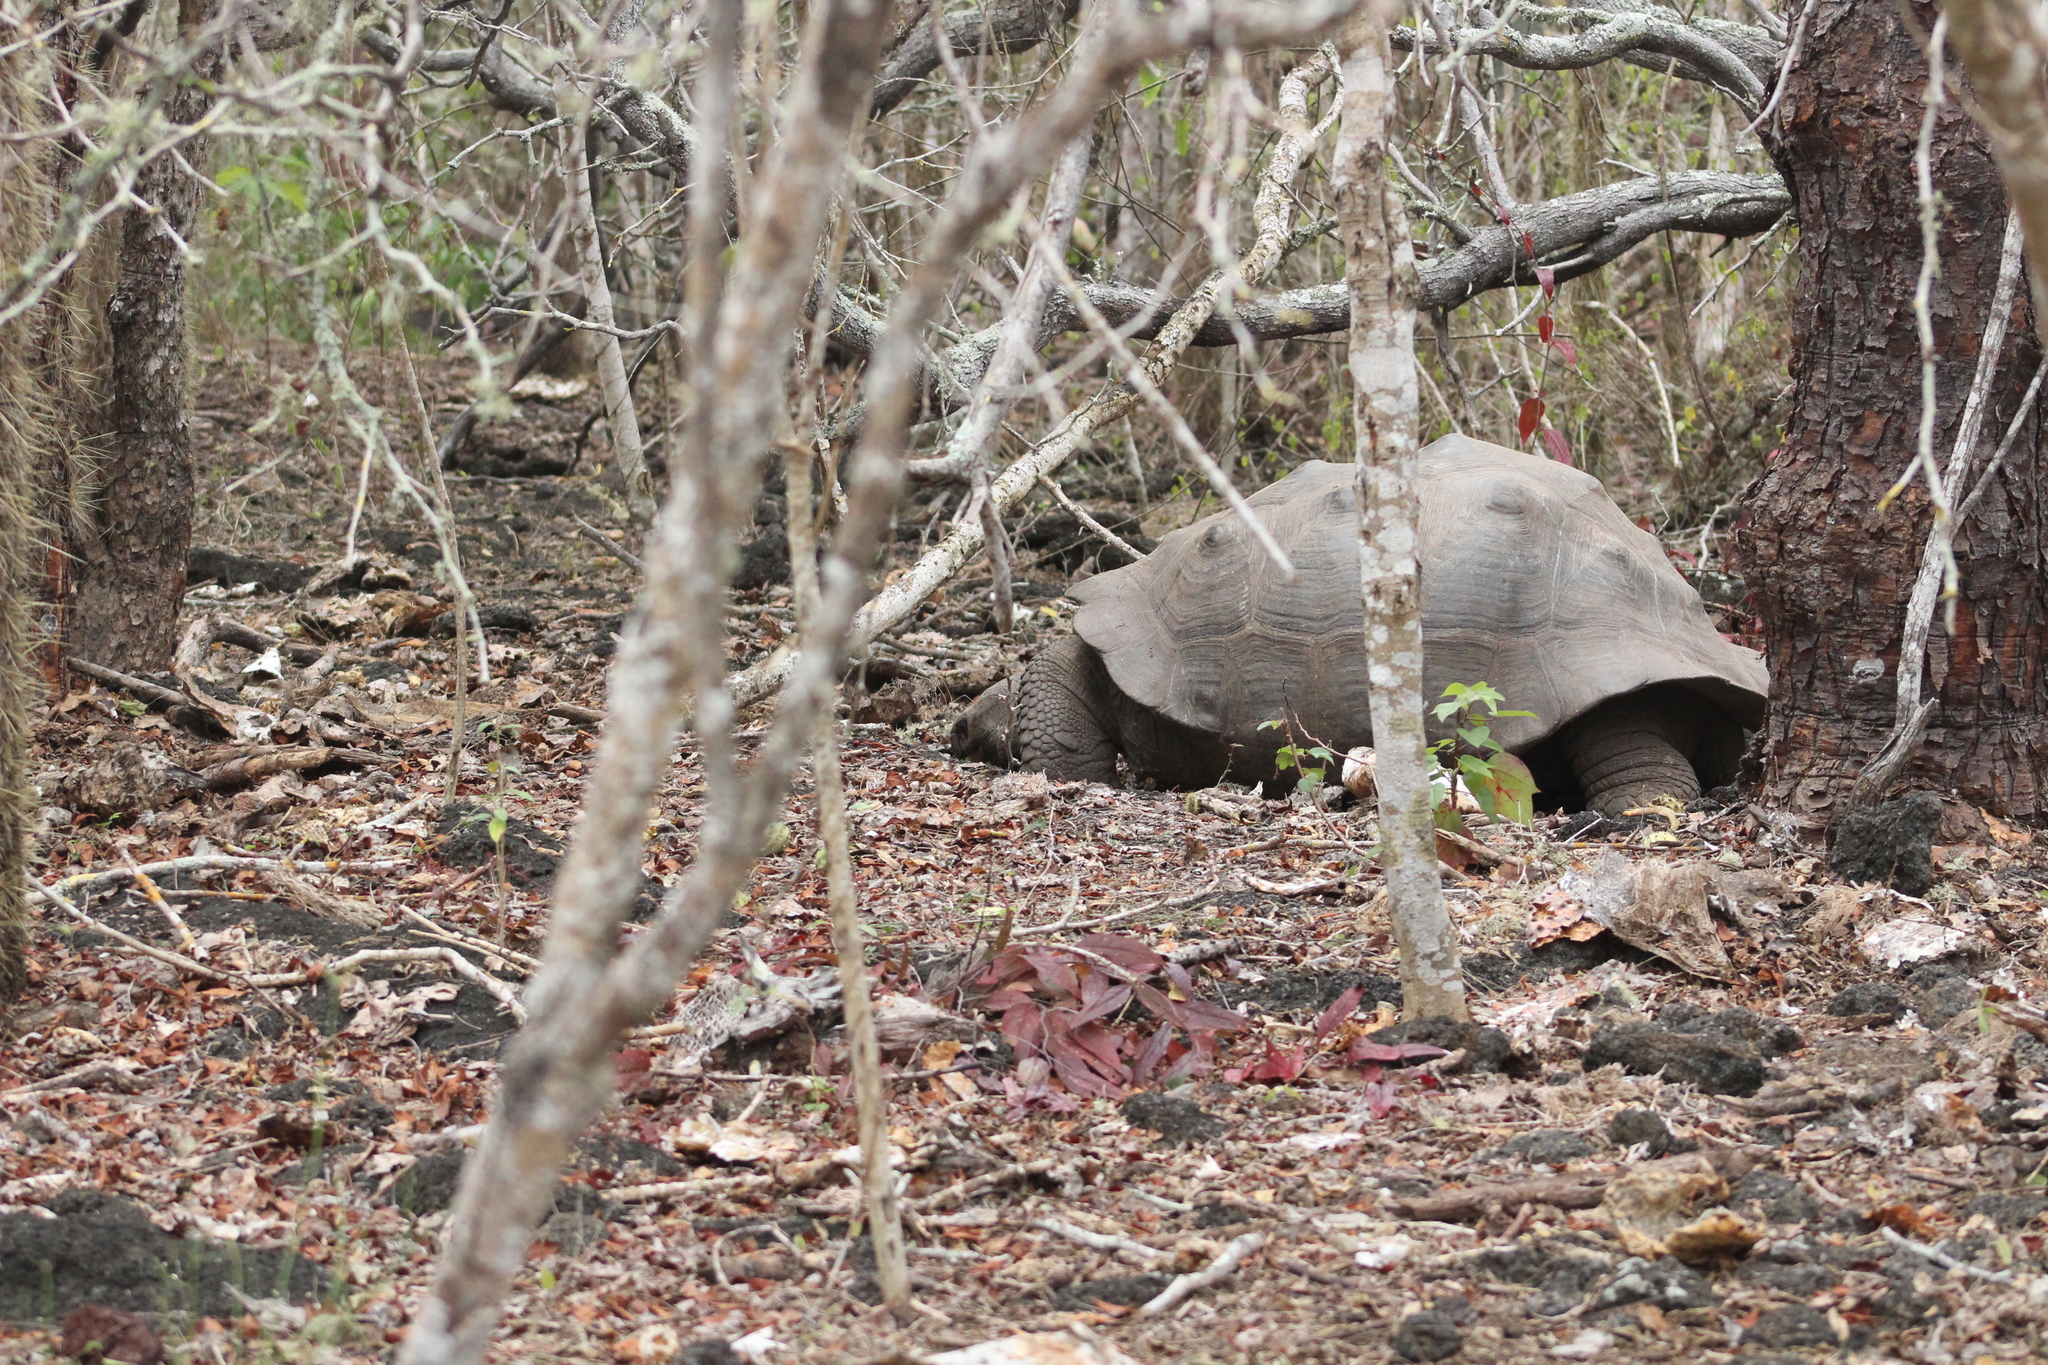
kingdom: Animalia
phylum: Chordata
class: Testudines
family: Testudinidae
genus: Chelonoidis
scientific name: Chelonoidis guntheri
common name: Sierra negra giant tortoise
